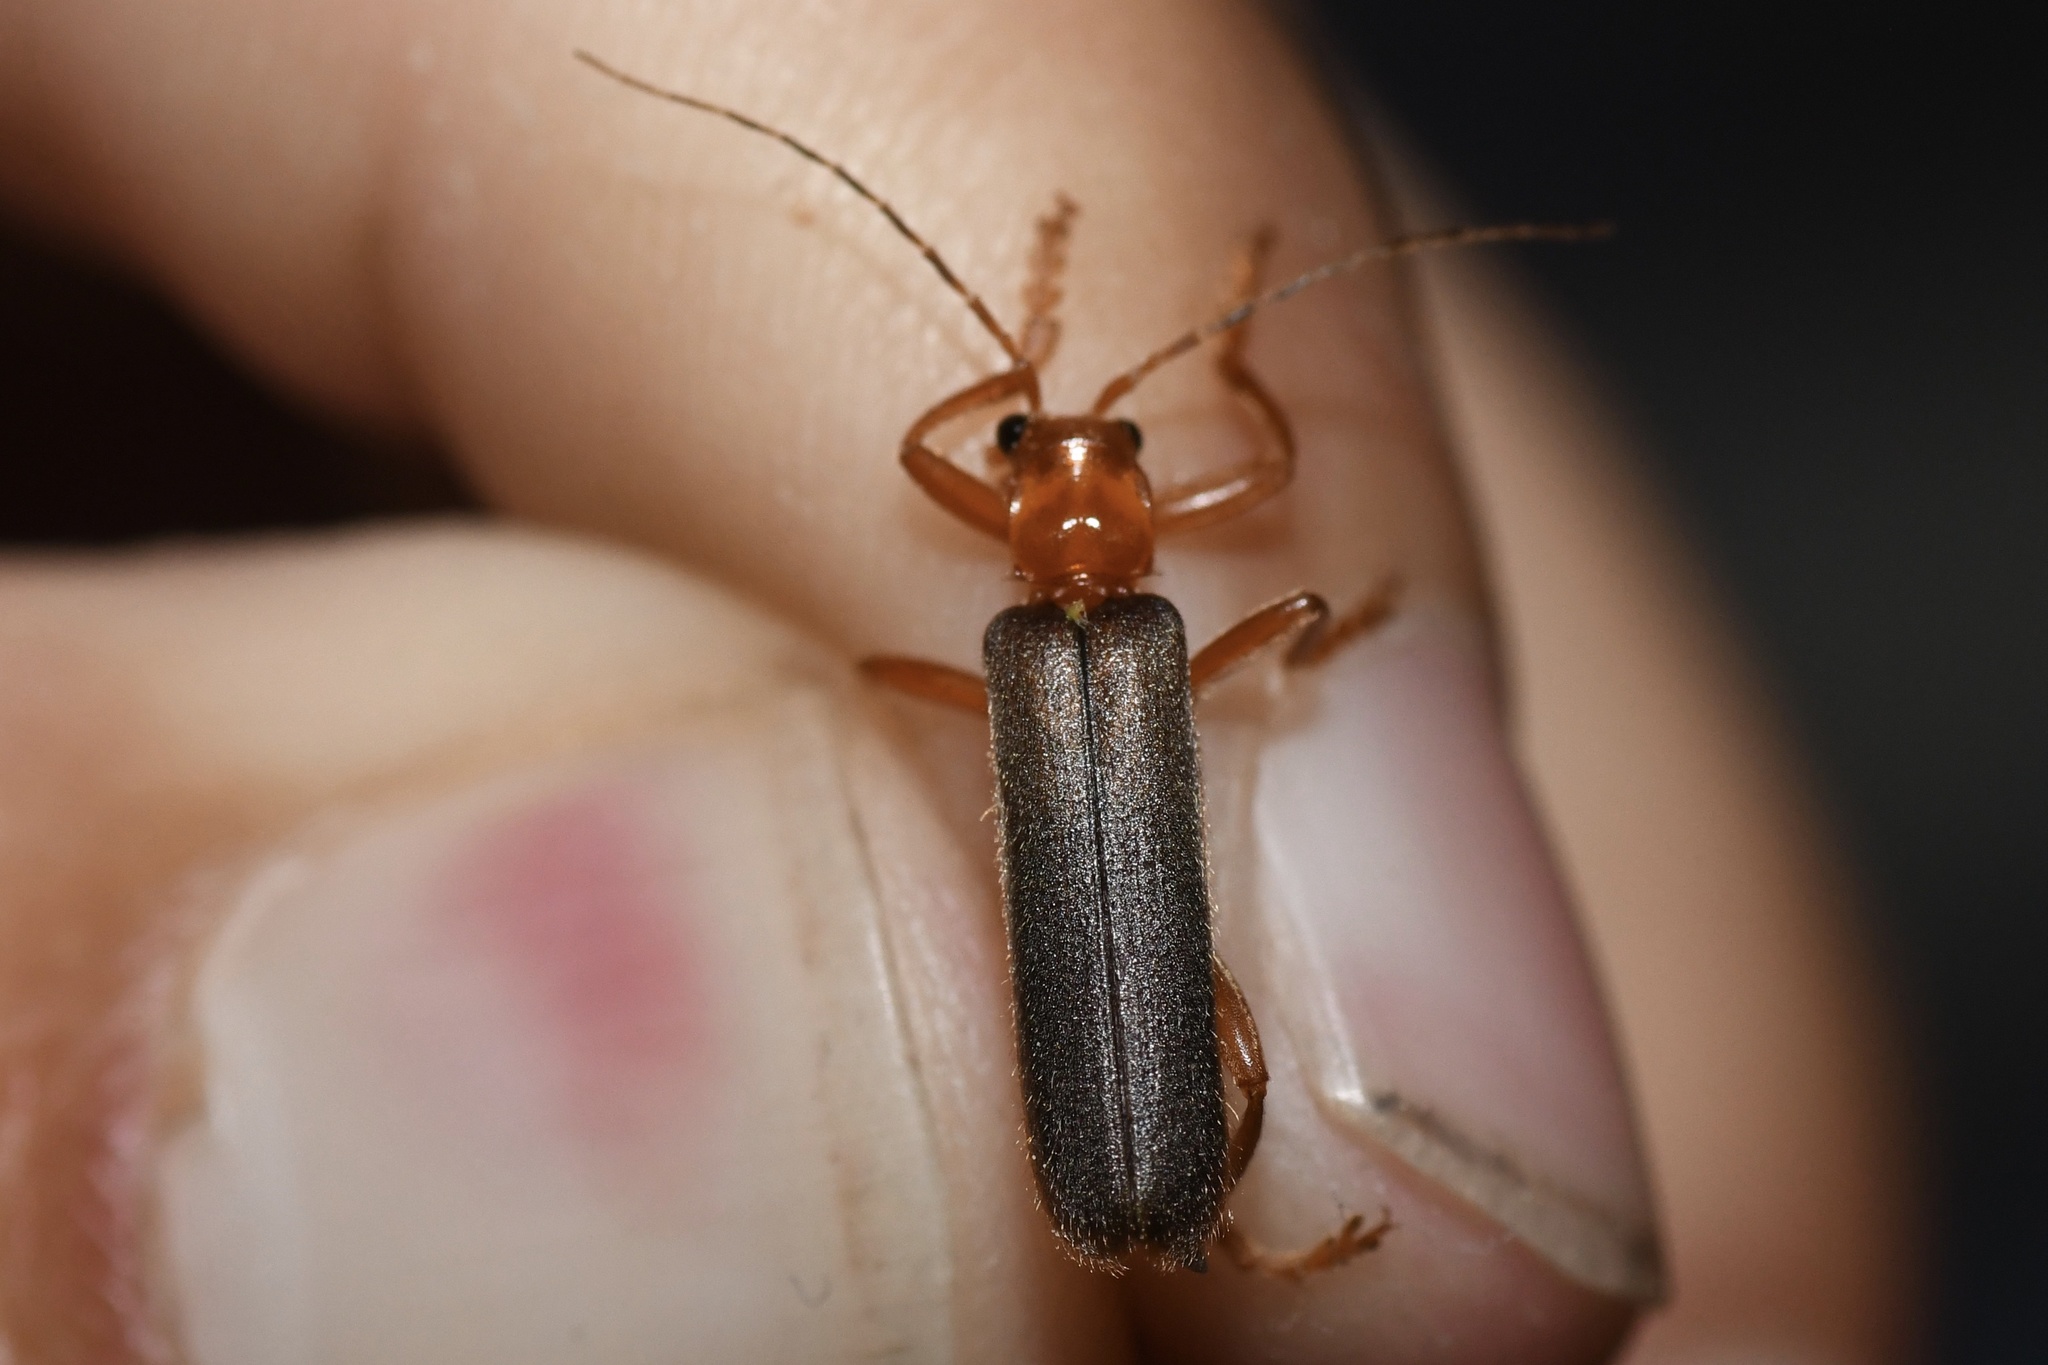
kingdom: Animalia
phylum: Arthropoda
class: Insecta
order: Coleoptera
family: Cantharidae
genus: Pacificanthia
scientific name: Pacificanthia rotundicollis
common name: Brown leatherwing beetle
